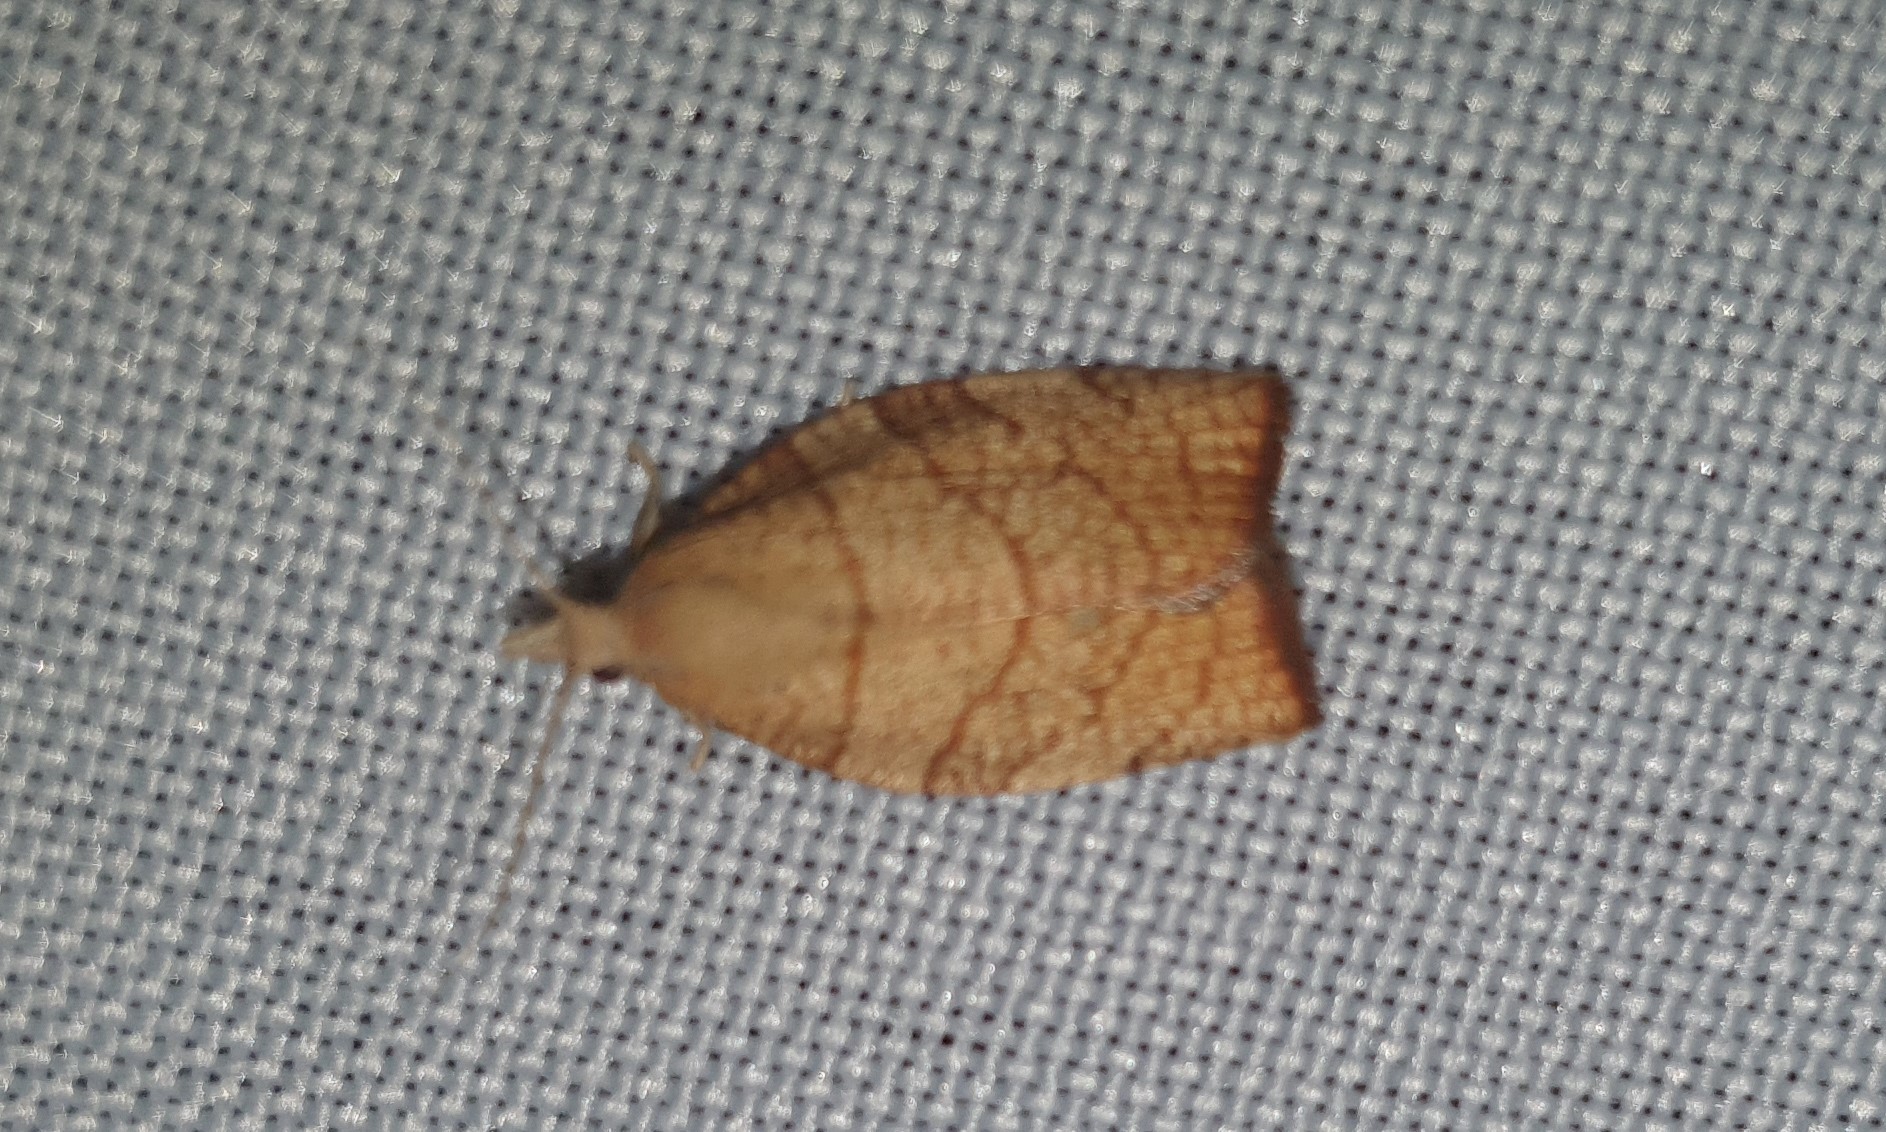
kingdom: Animalia
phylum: Arthropoda
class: Insecta
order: Lepidoptera
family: Tortricidae
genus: Pandemis
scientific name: Pandemis corylana
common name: Chequered fruit-tree tortrix
